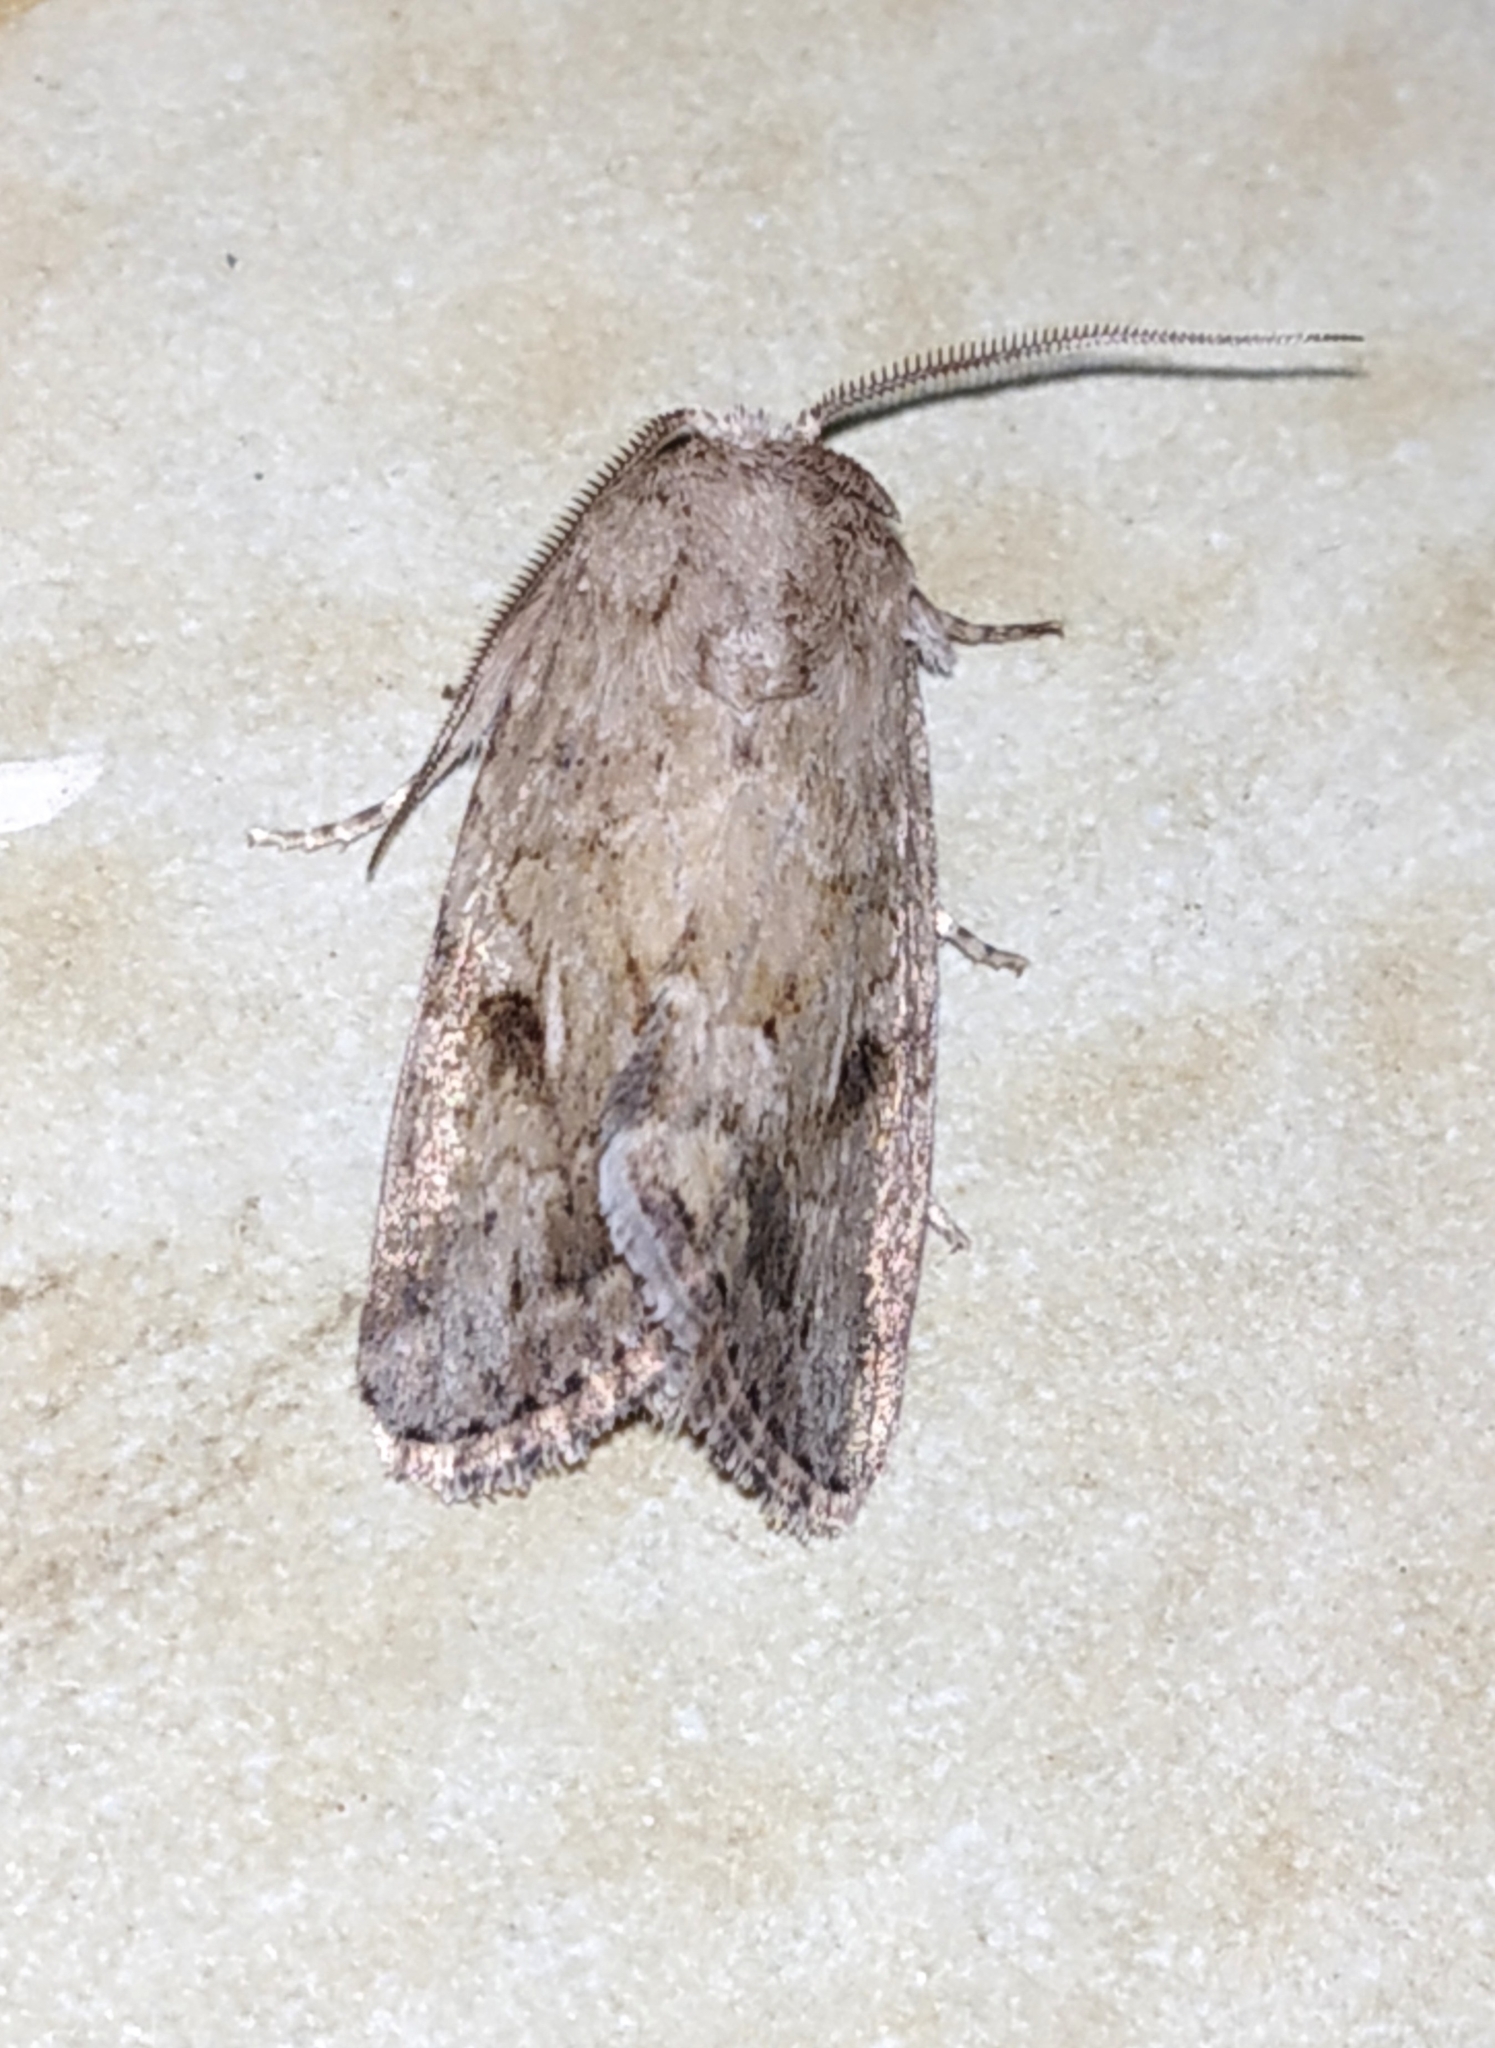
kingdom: Animalia
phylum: Arthropoda
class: Insecta
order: Lepidoptera
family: Noctuidae
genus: Spodoptera
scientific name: Spodoptera pecten
